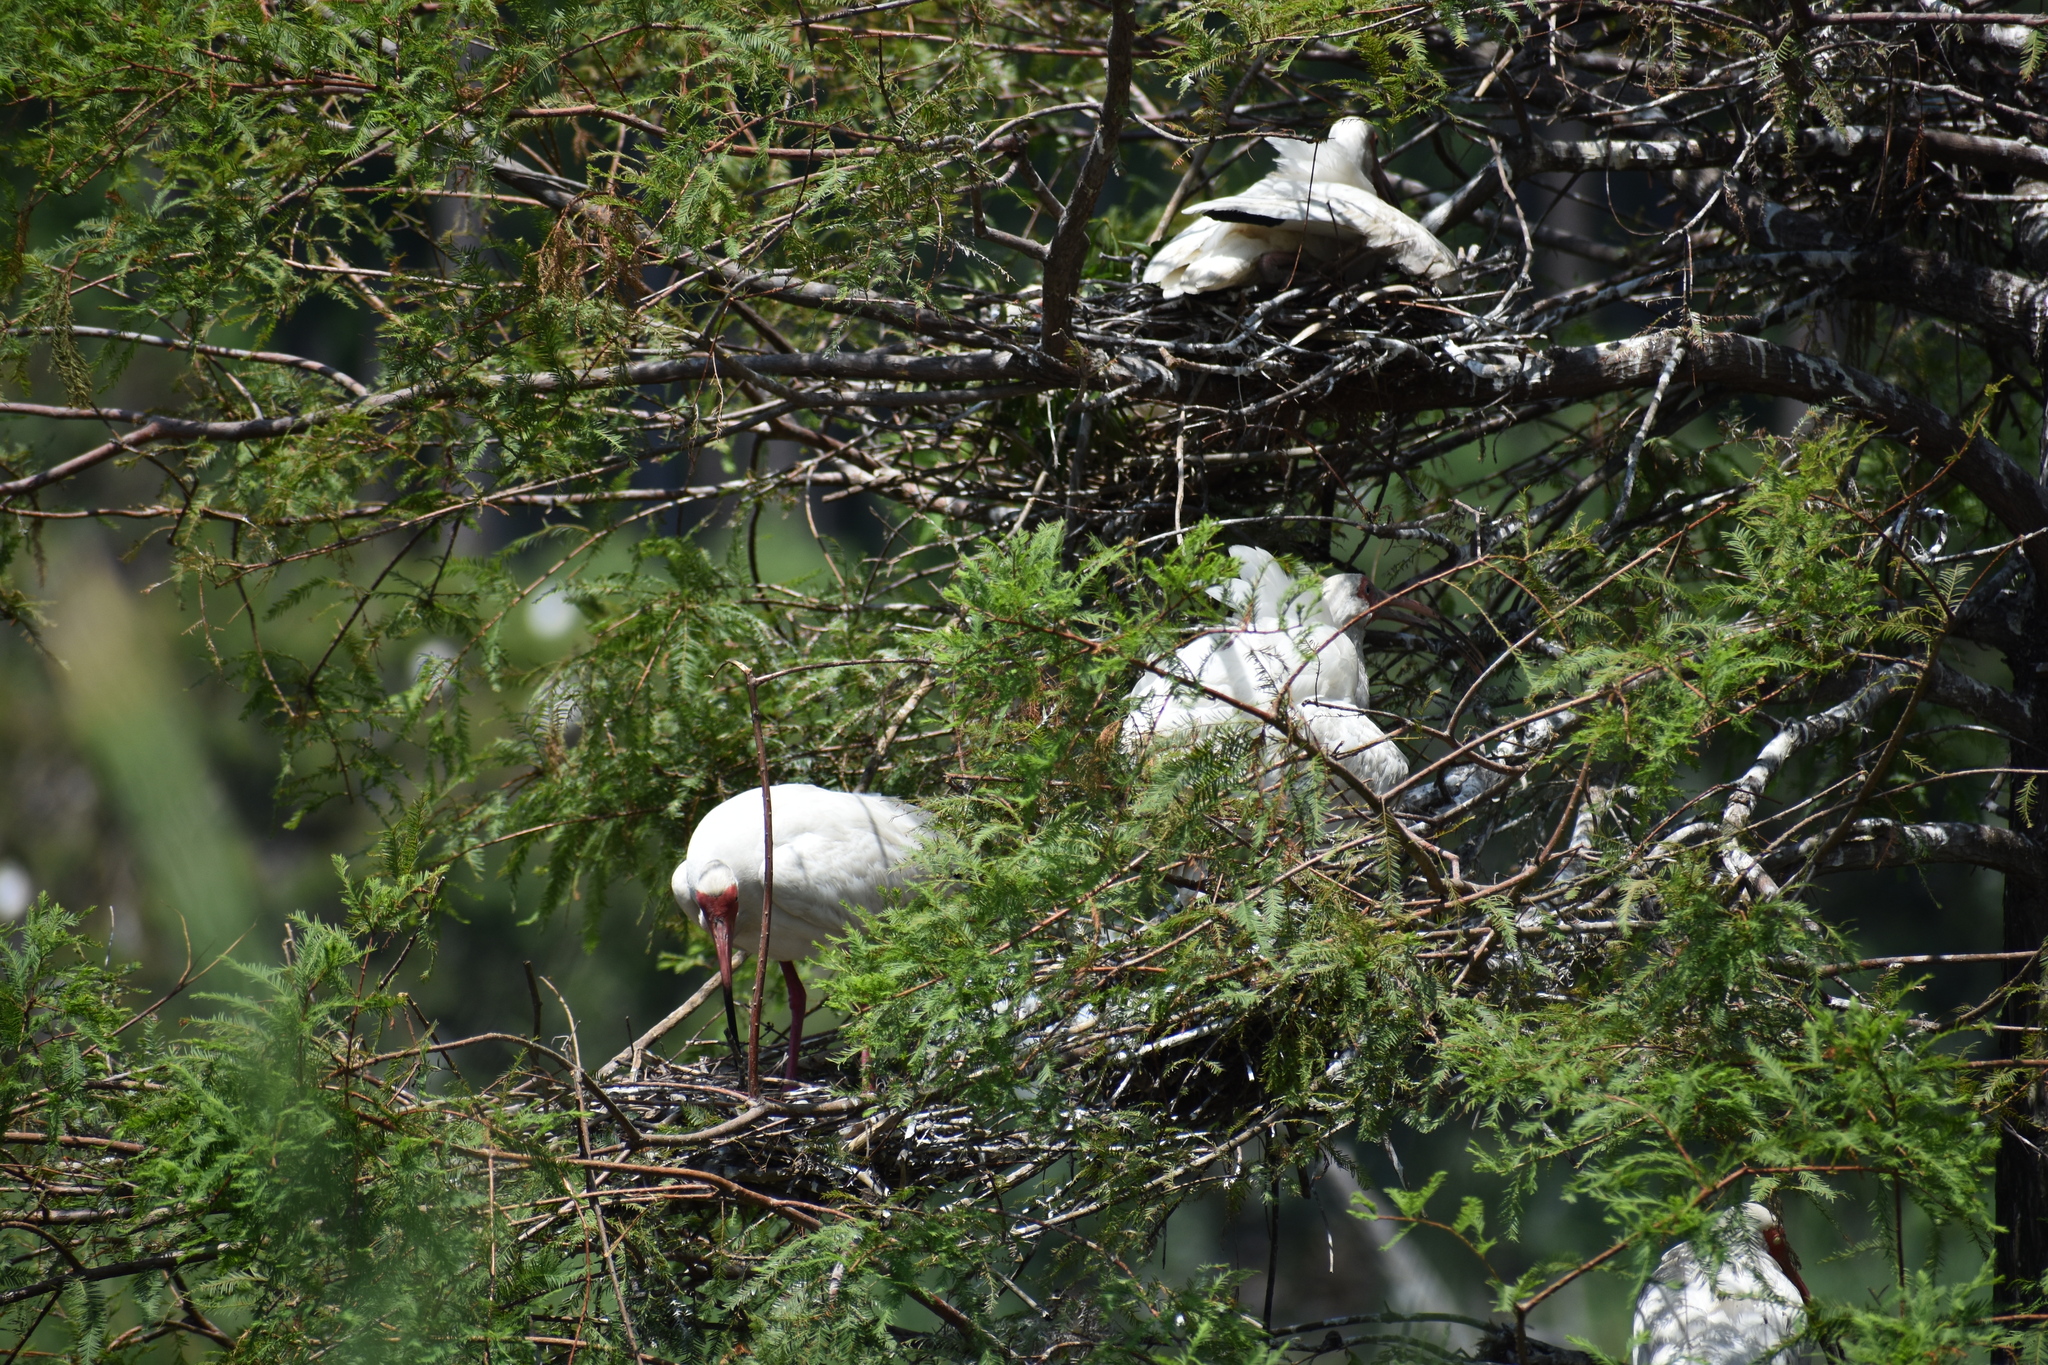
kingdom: Animalia
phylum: Chordata
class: Aves
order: Pelecaniformes
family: Threskiornithidae
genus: Eudocimus
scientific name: Eudocimus albus
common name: White ibis
